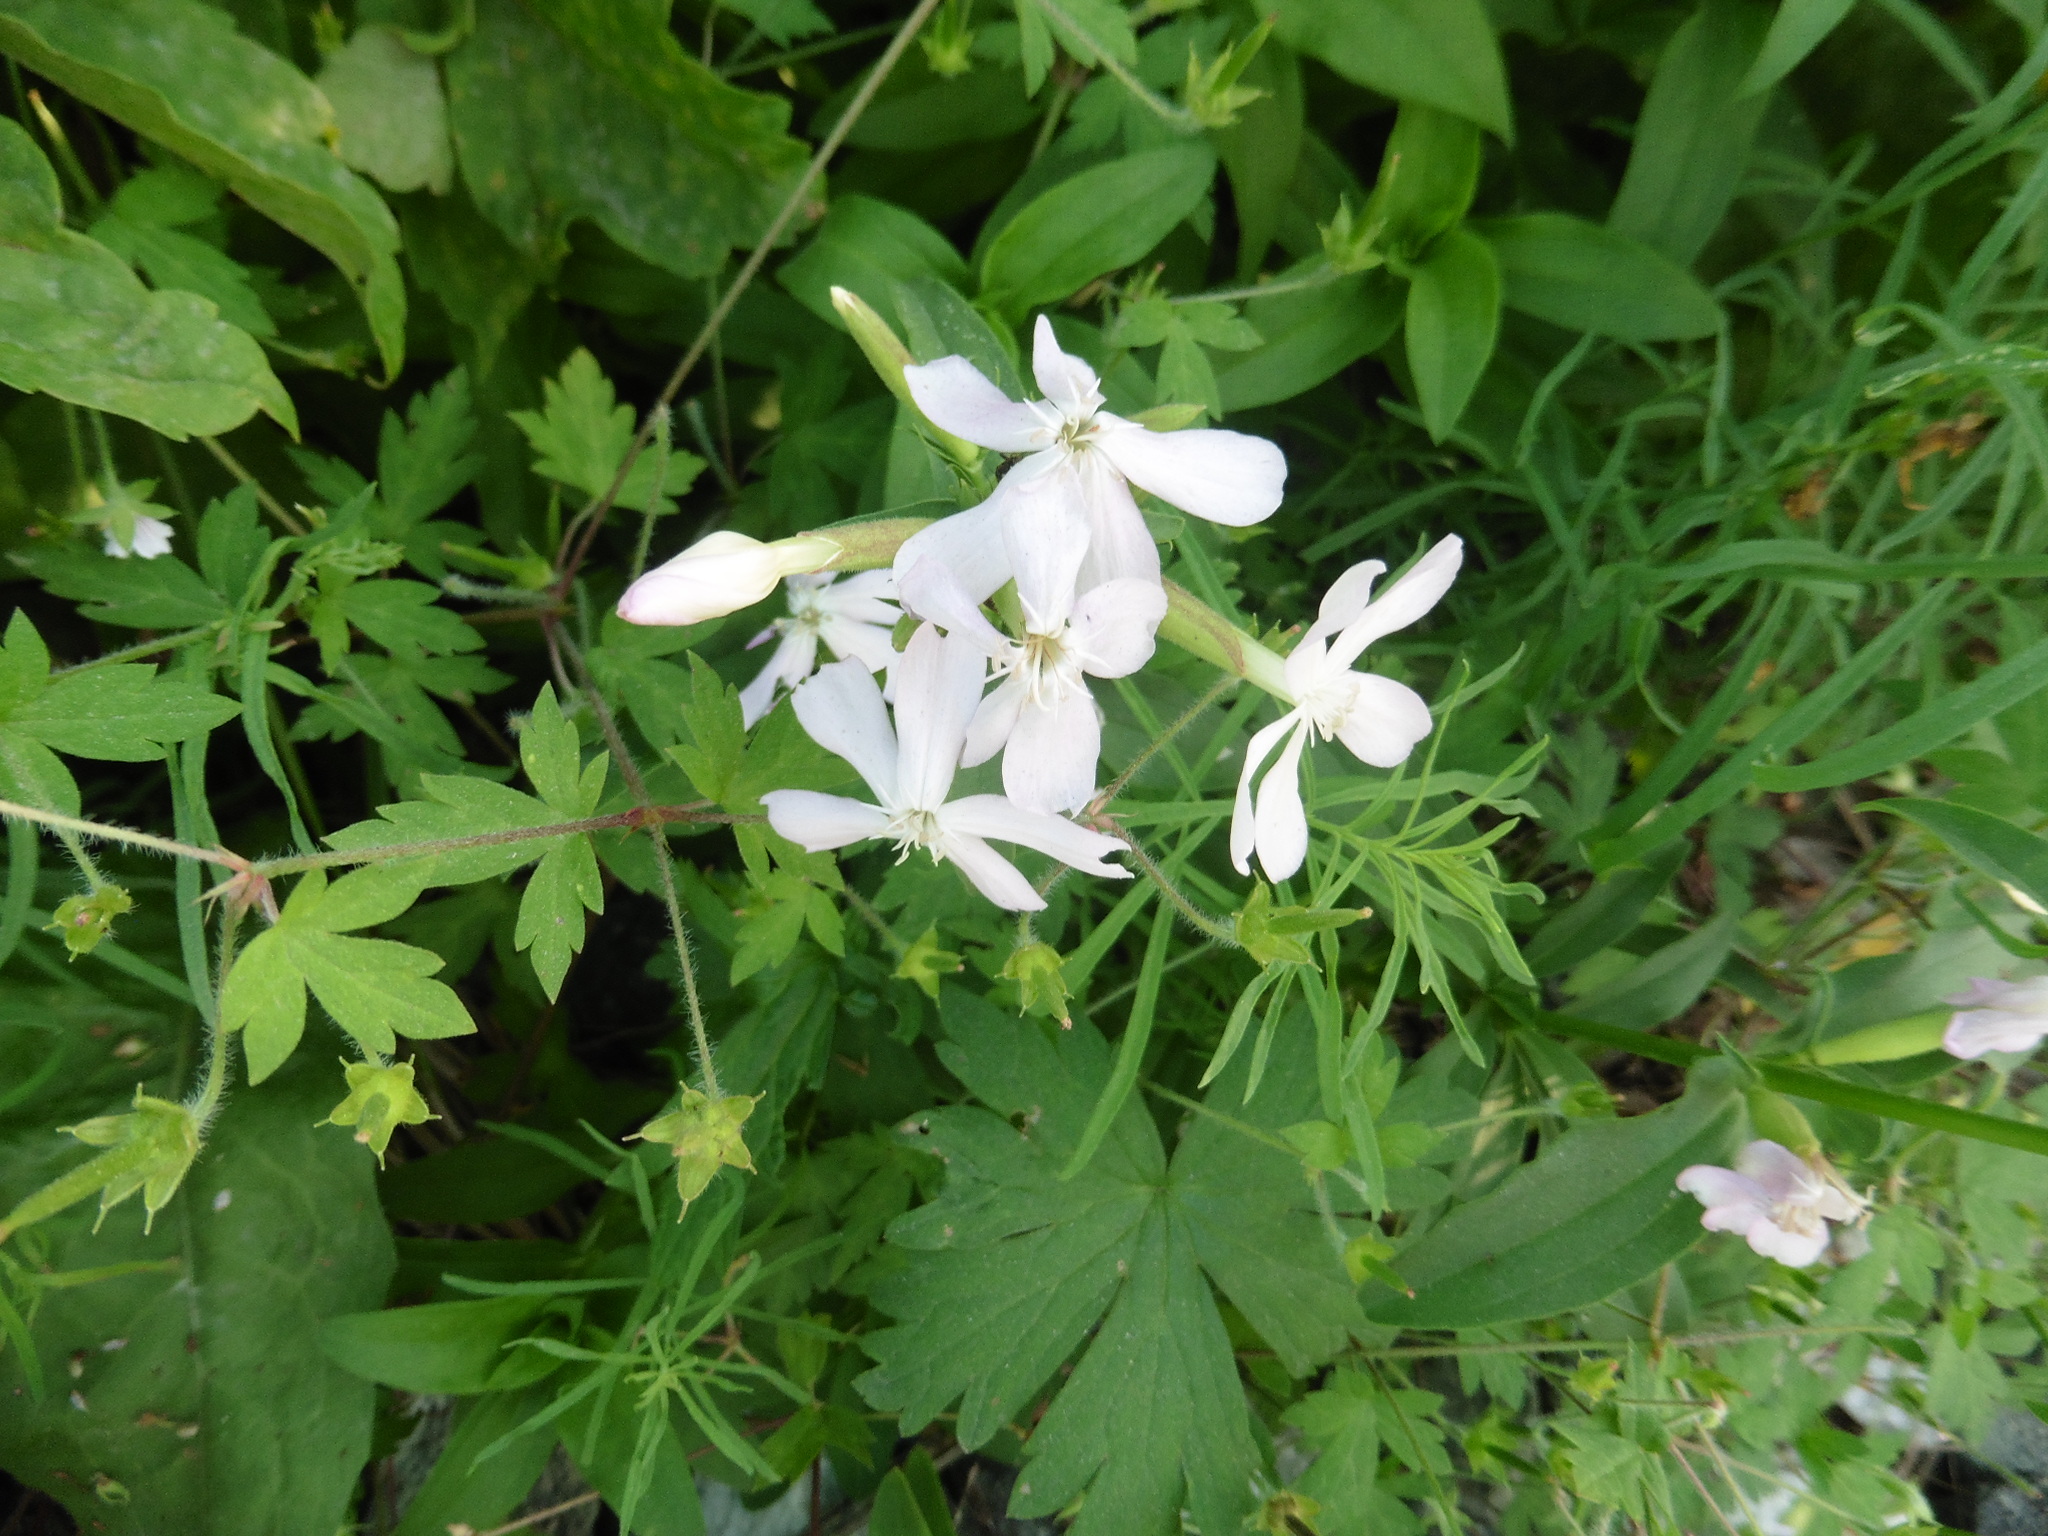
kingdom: Plantae
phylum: Tracheophyta
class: Magnoliopsida
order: Caryophyllales
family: Caryophyllaceae
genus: Saponaria
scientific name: Saponaria officinalis
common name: Soapwort
